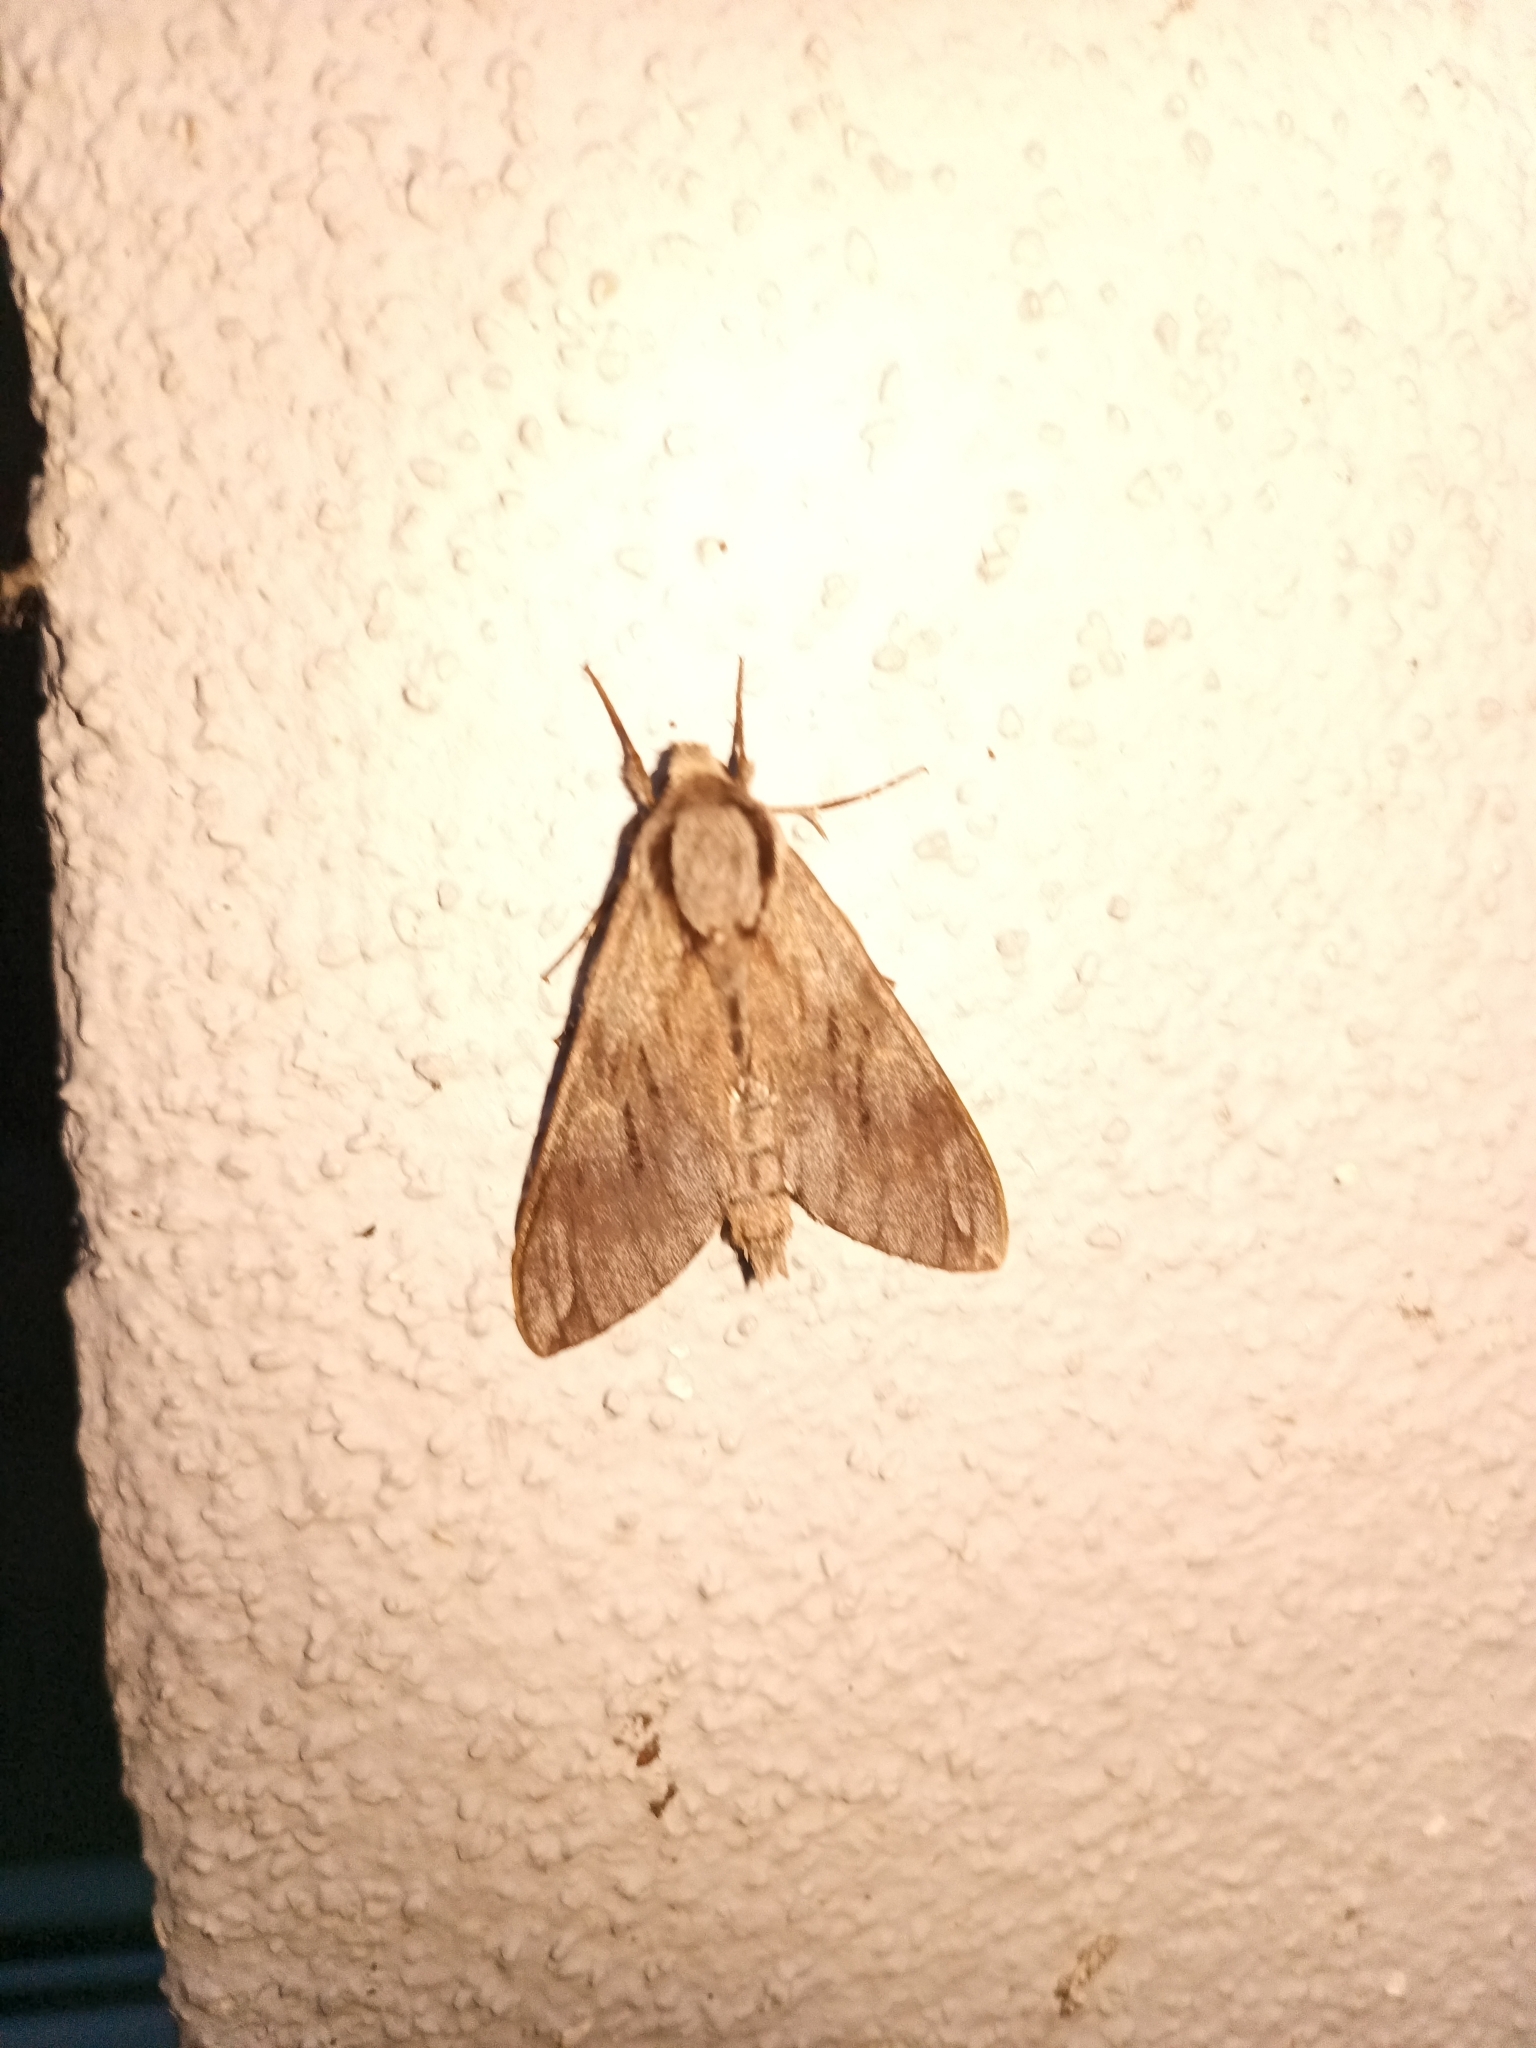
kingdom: Animalia
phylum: Arthropoda
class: Insecta
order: Lepidoptera
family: Sphingidae
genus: Sphinx
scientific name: Sphinx pinastri
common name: Pine hawk-moth
